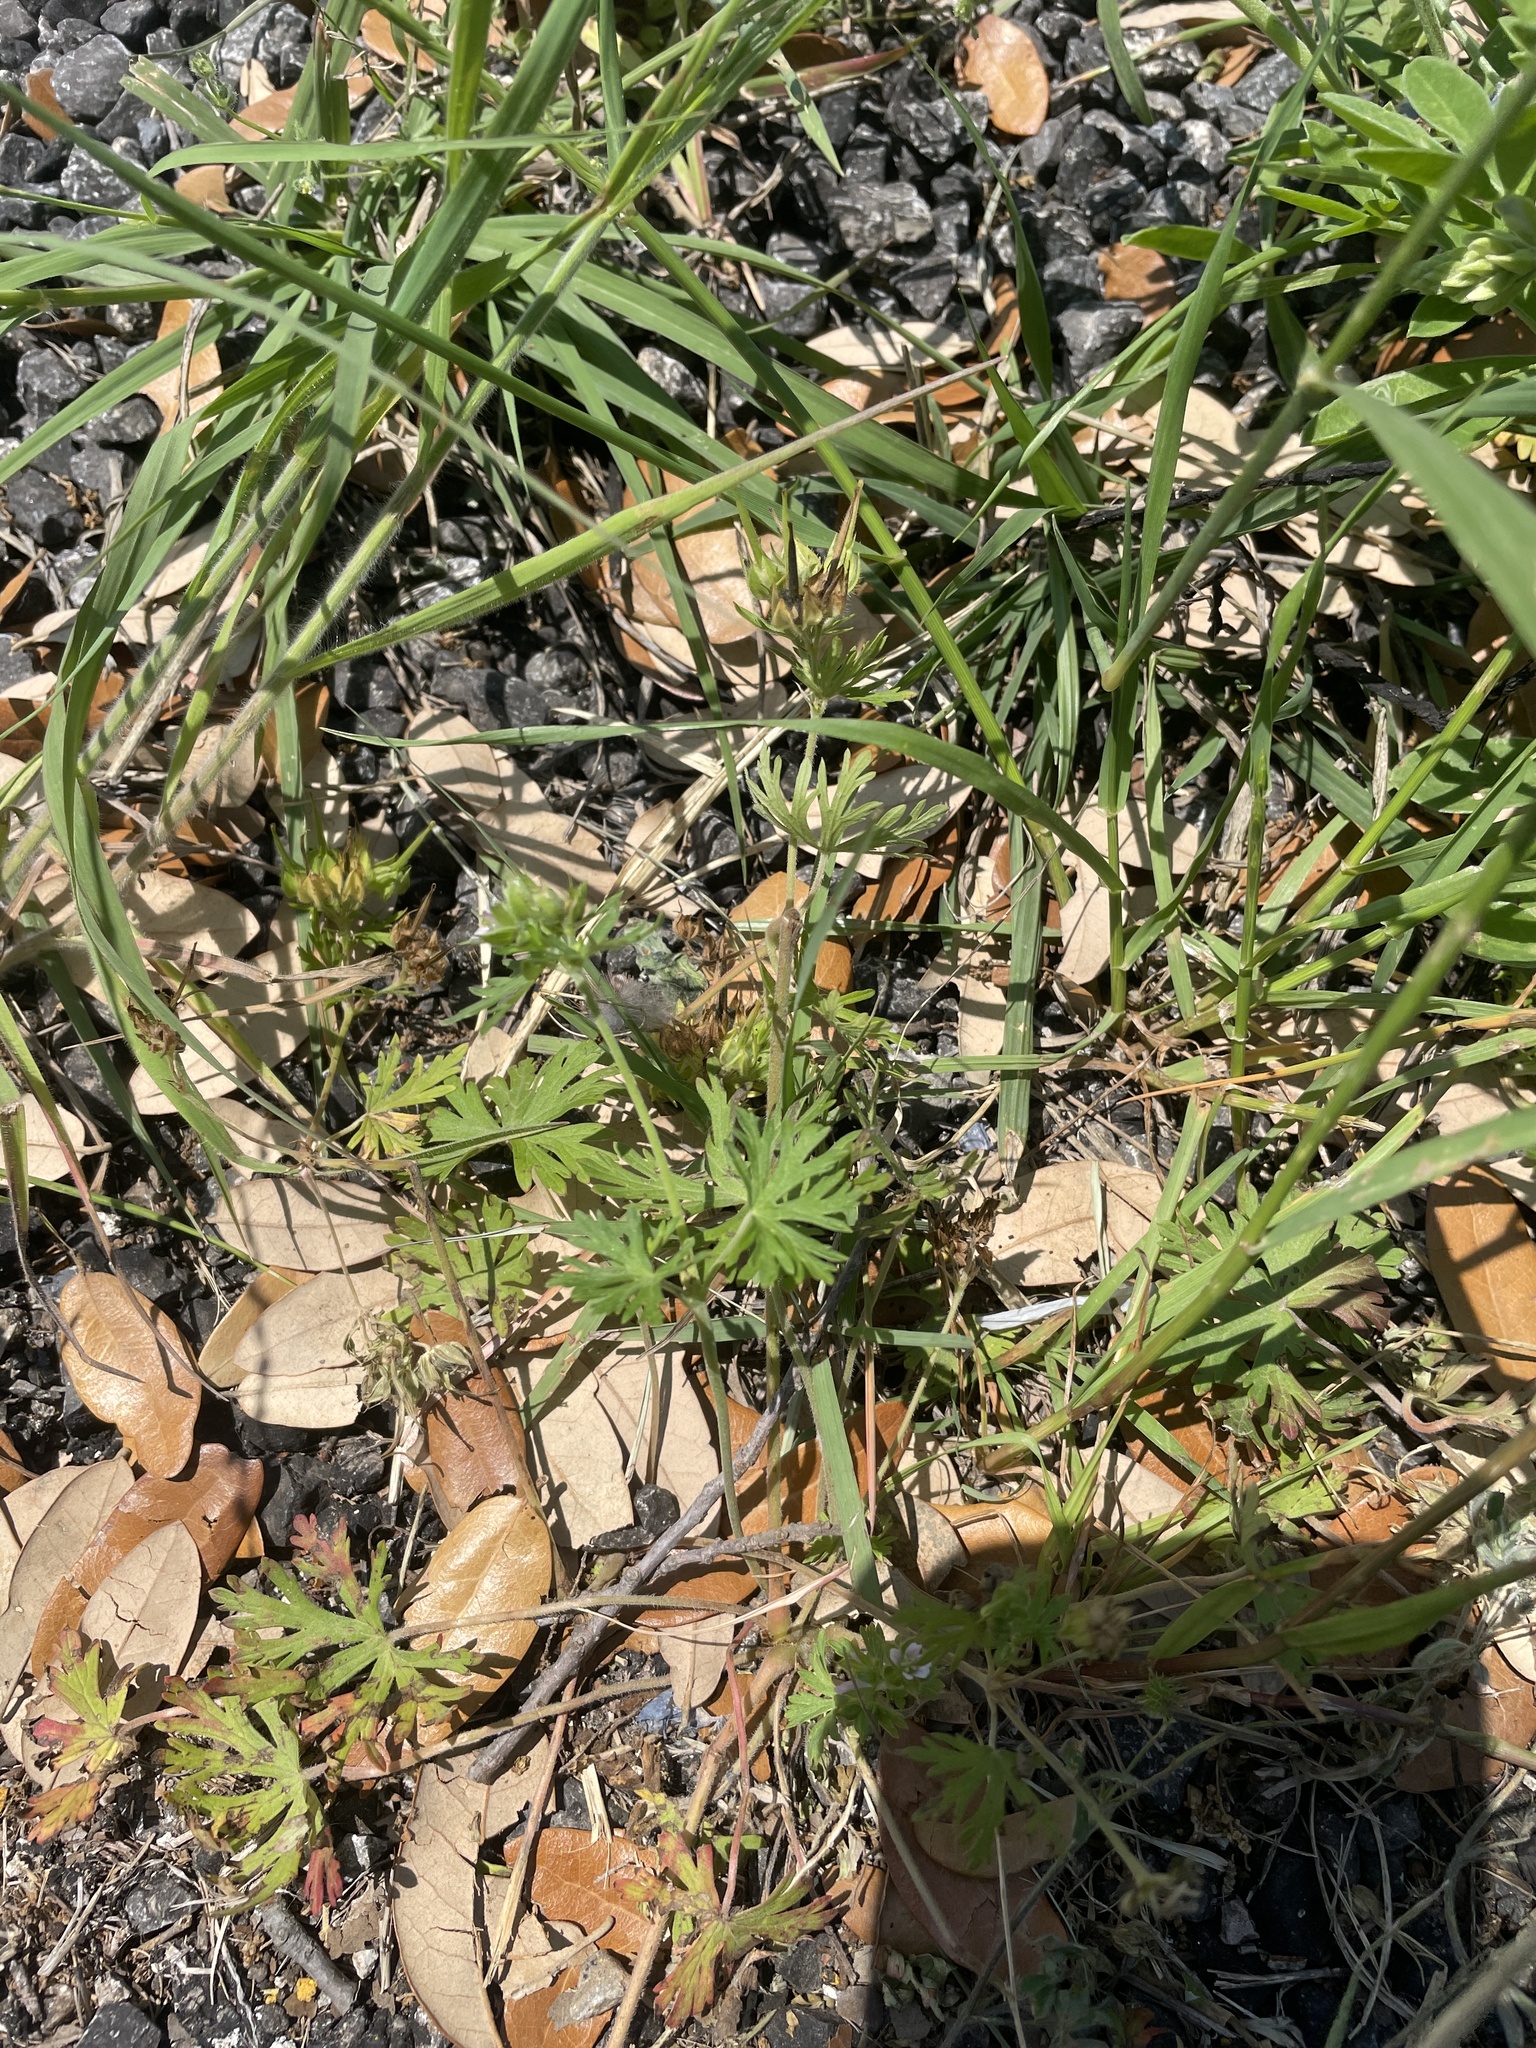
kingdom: Plantae
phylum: Tracheophyta
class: Magnoliopsida
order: Geraniales
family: Geraniaceae
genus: Geranium
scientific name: Geranium carolinianum
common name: Carolina crane's-bill
